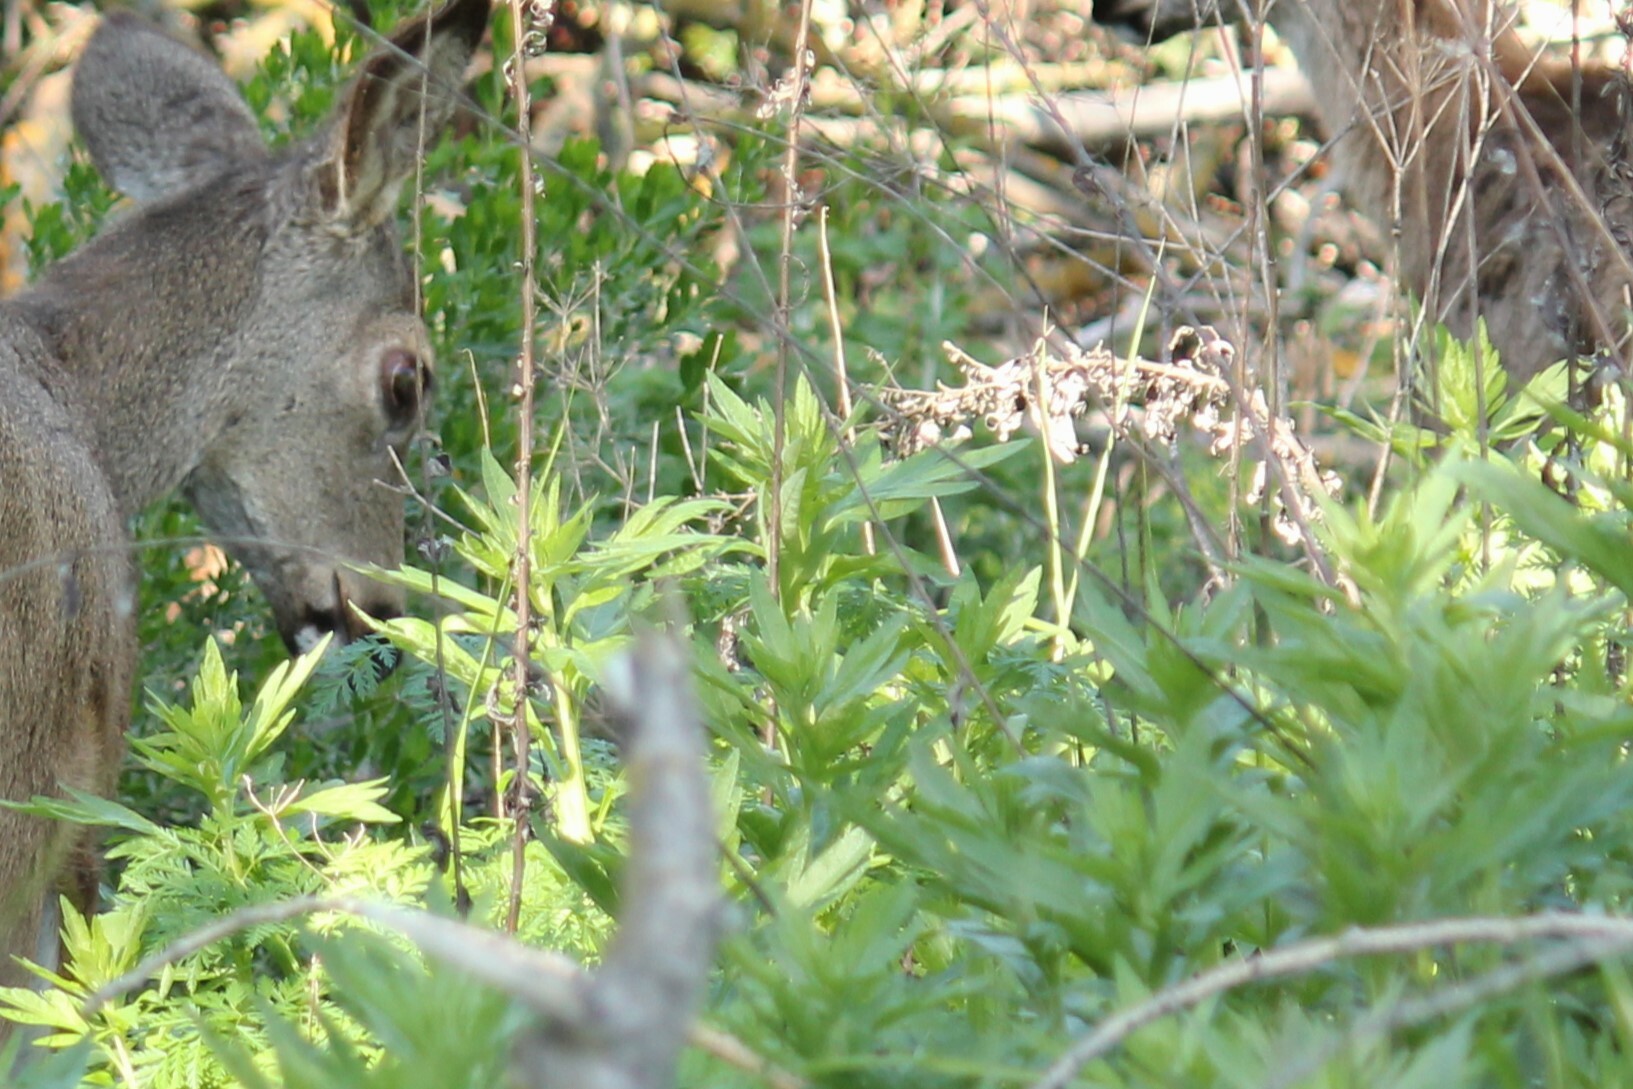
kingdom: Plantae
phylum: Tracheophyta
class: Magnoliopsida
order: Asterales
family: Asteraceae
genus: Artemisia
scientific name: Artemisia douglasiana
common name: Northwest mugwort
